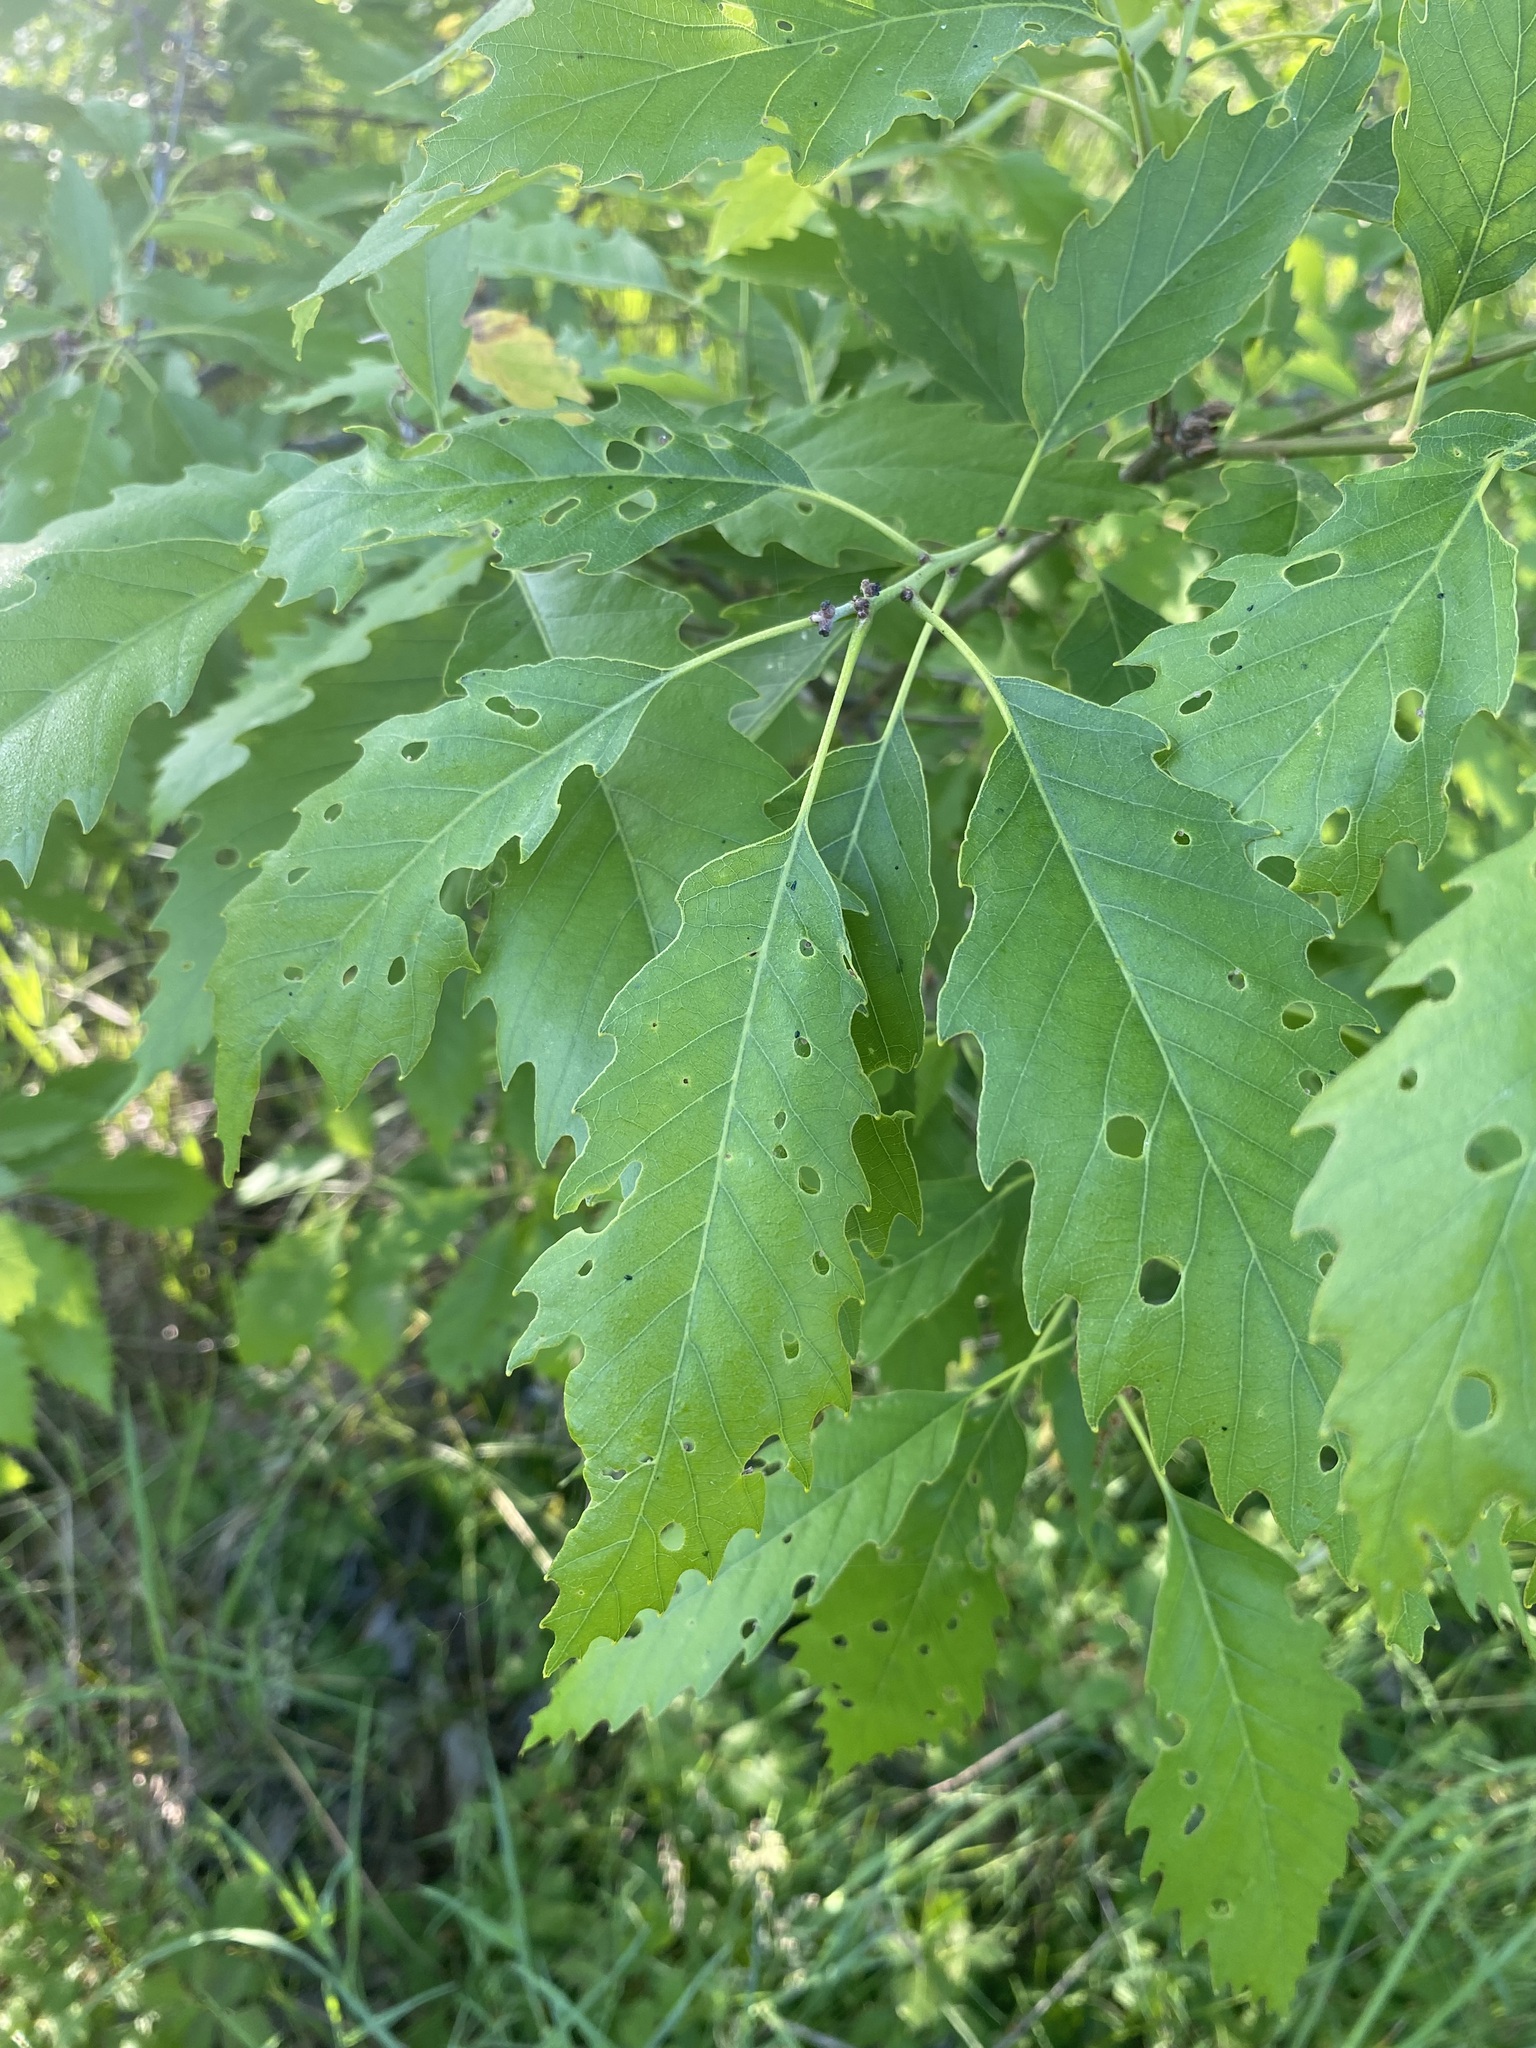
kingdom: Plantae
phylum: Tracheophyta
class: Magnoliopsida
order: Fagales
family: Fagaceae
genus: Quercus
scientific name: Quercus muehlenbergii
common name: Chinkapin oak
